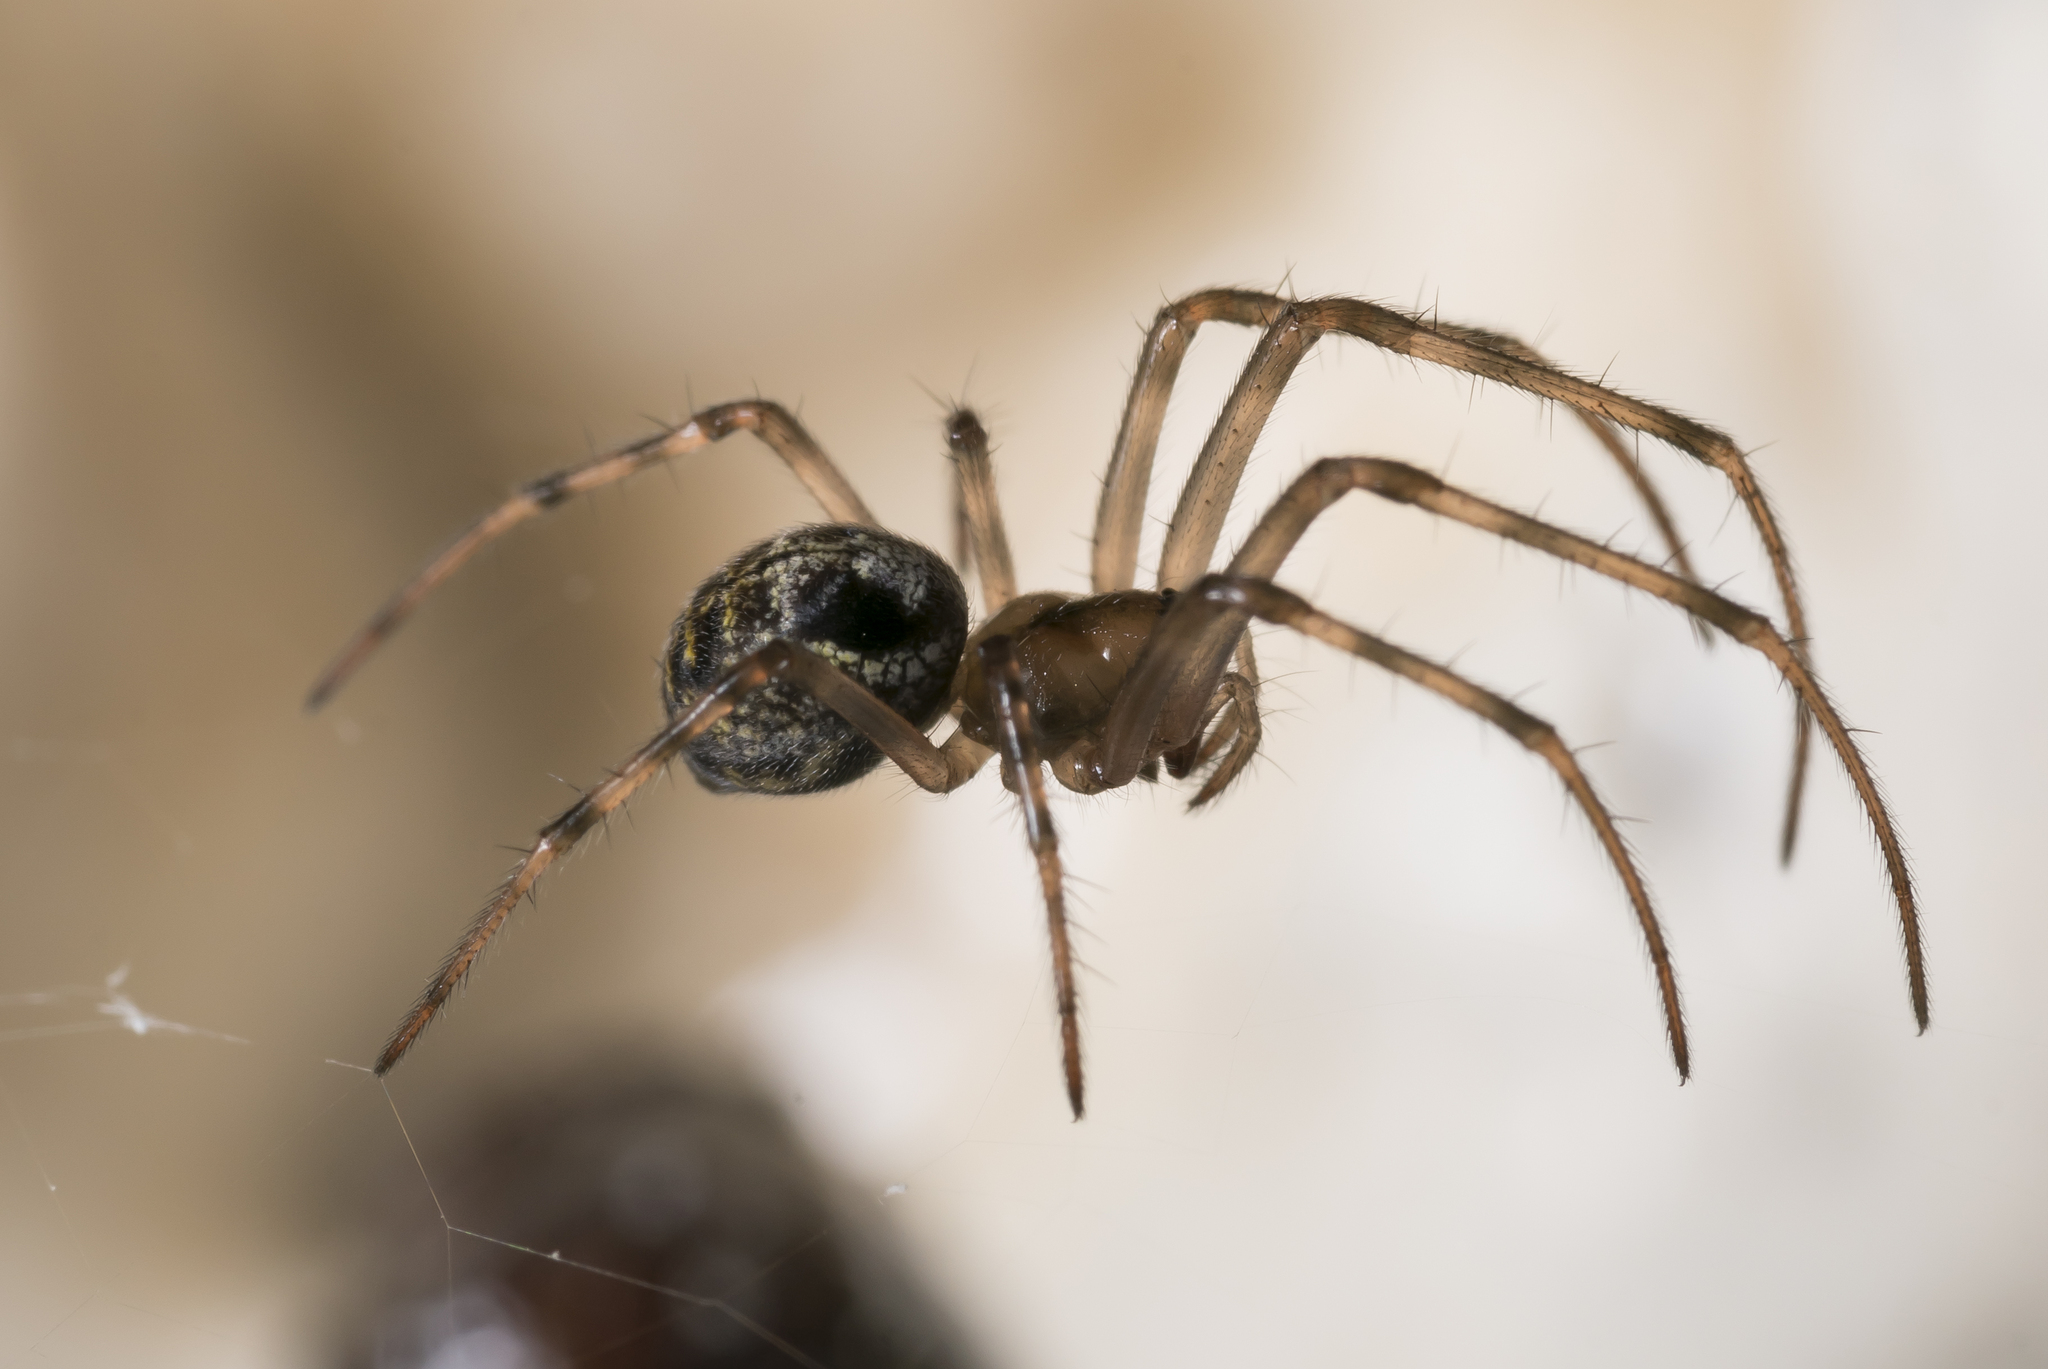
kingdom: Animalia
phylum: Arthropoda
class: Arachnida
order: Araneae
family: Tetragnathidae
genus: Meta
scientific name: Meta menardi
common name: Cave spider
